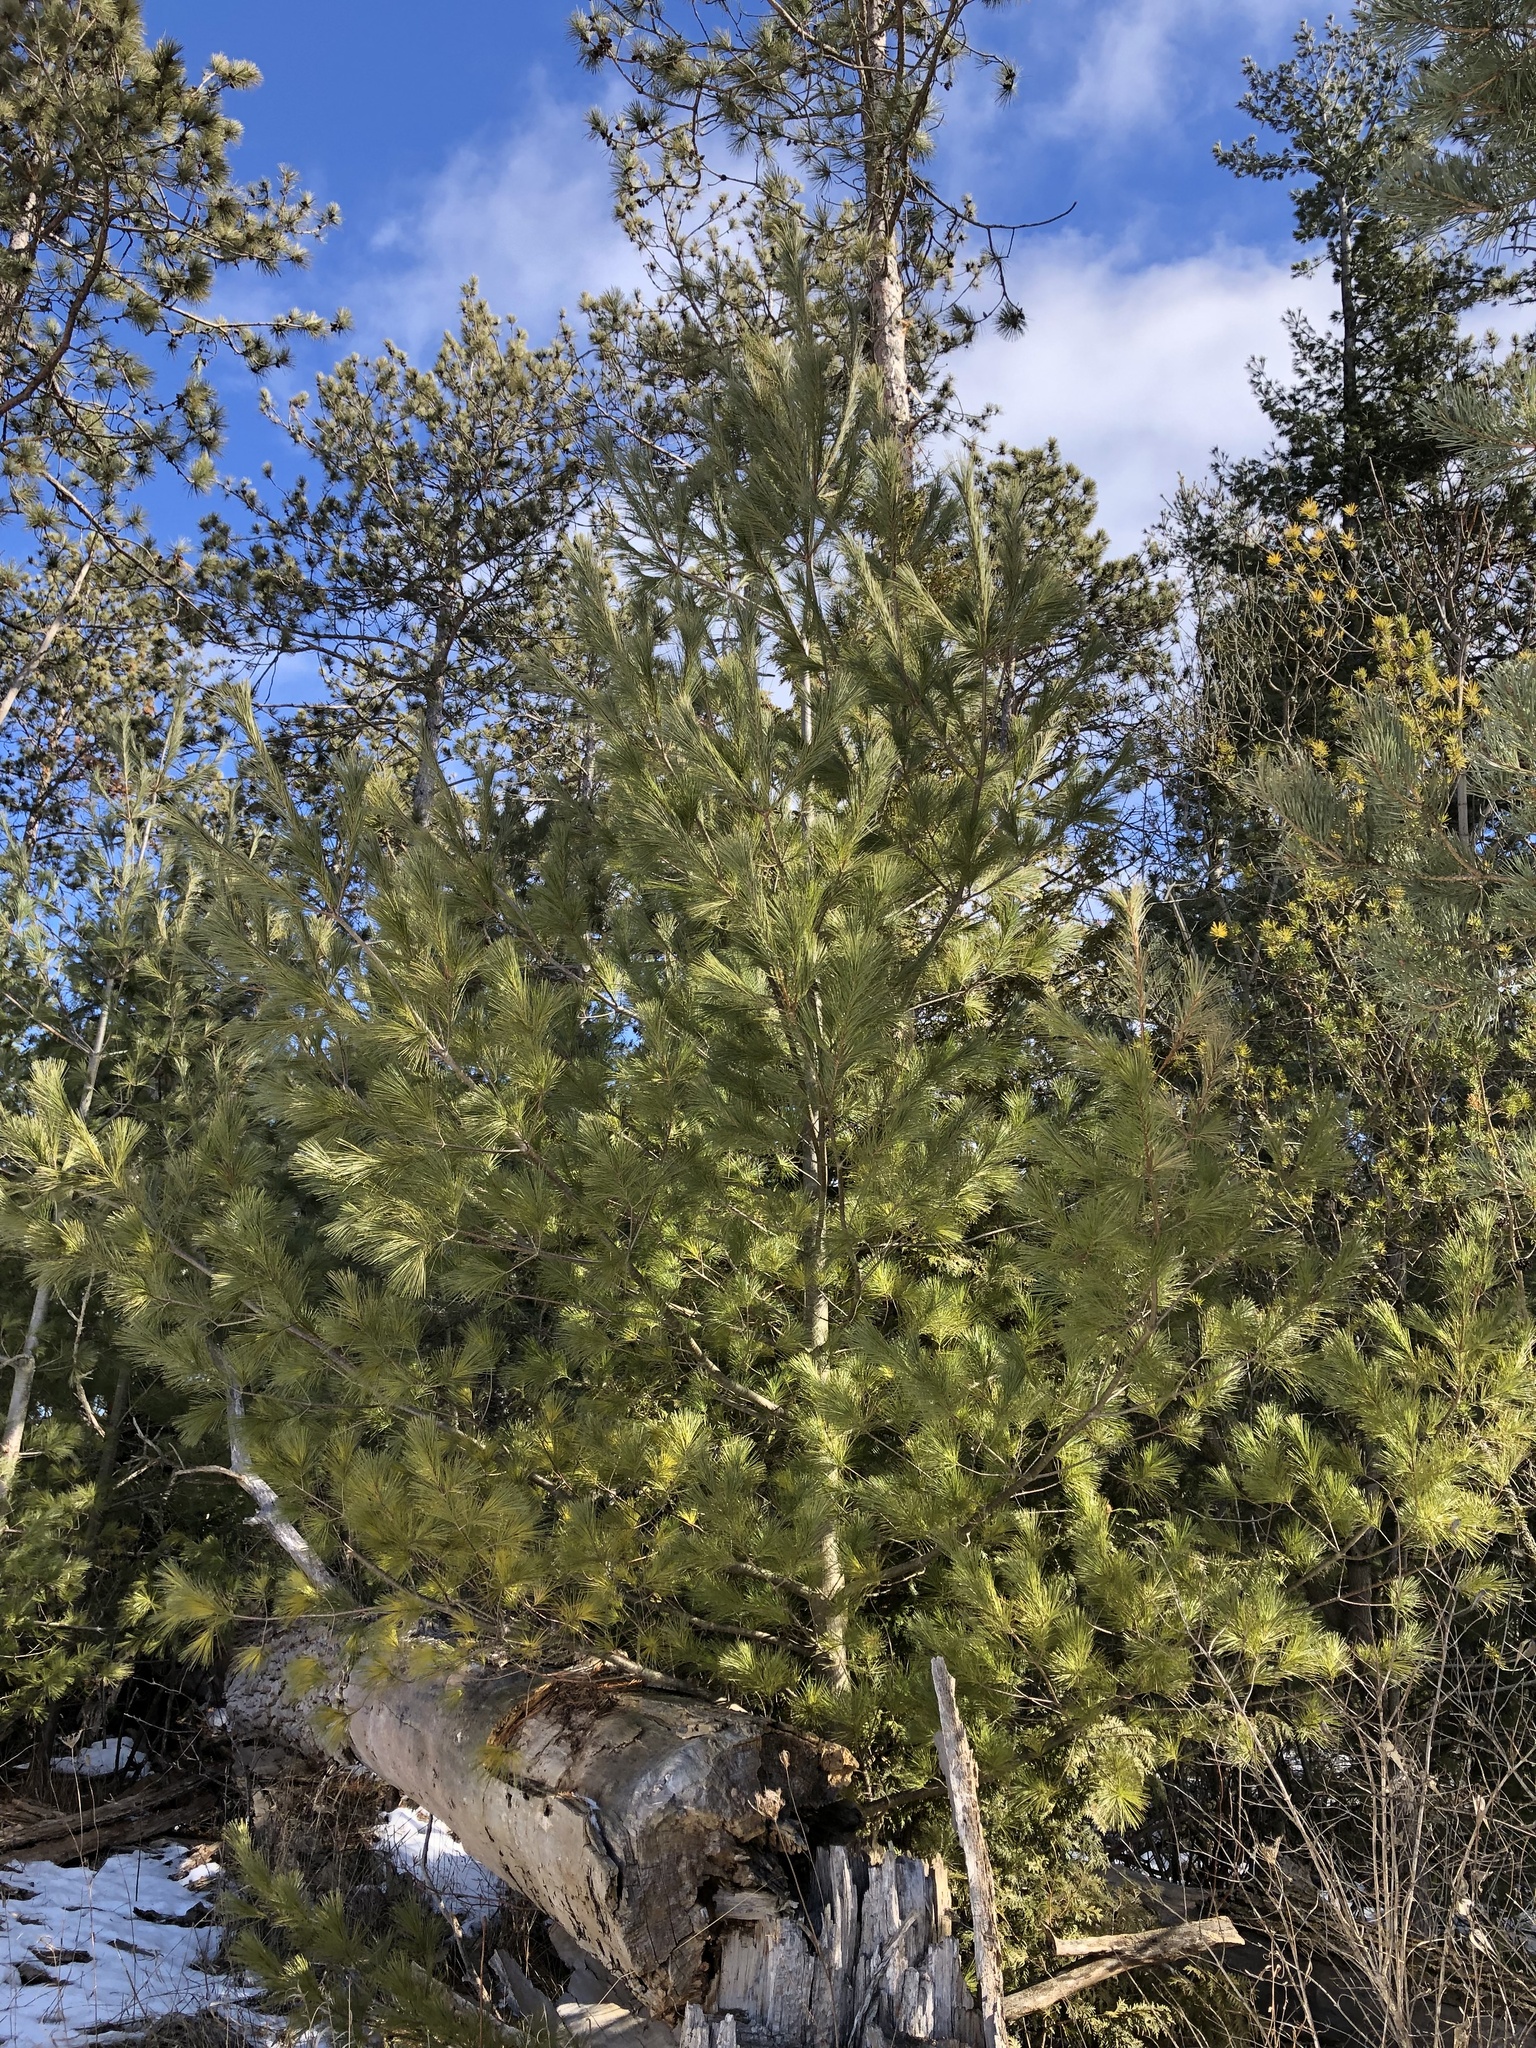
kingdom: Plantae
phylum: Tracheophyta
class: Pinopsida
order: Pinales
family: Pinaceae
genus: Pinus
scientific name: Pinus strobus
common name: Weymouth pine
